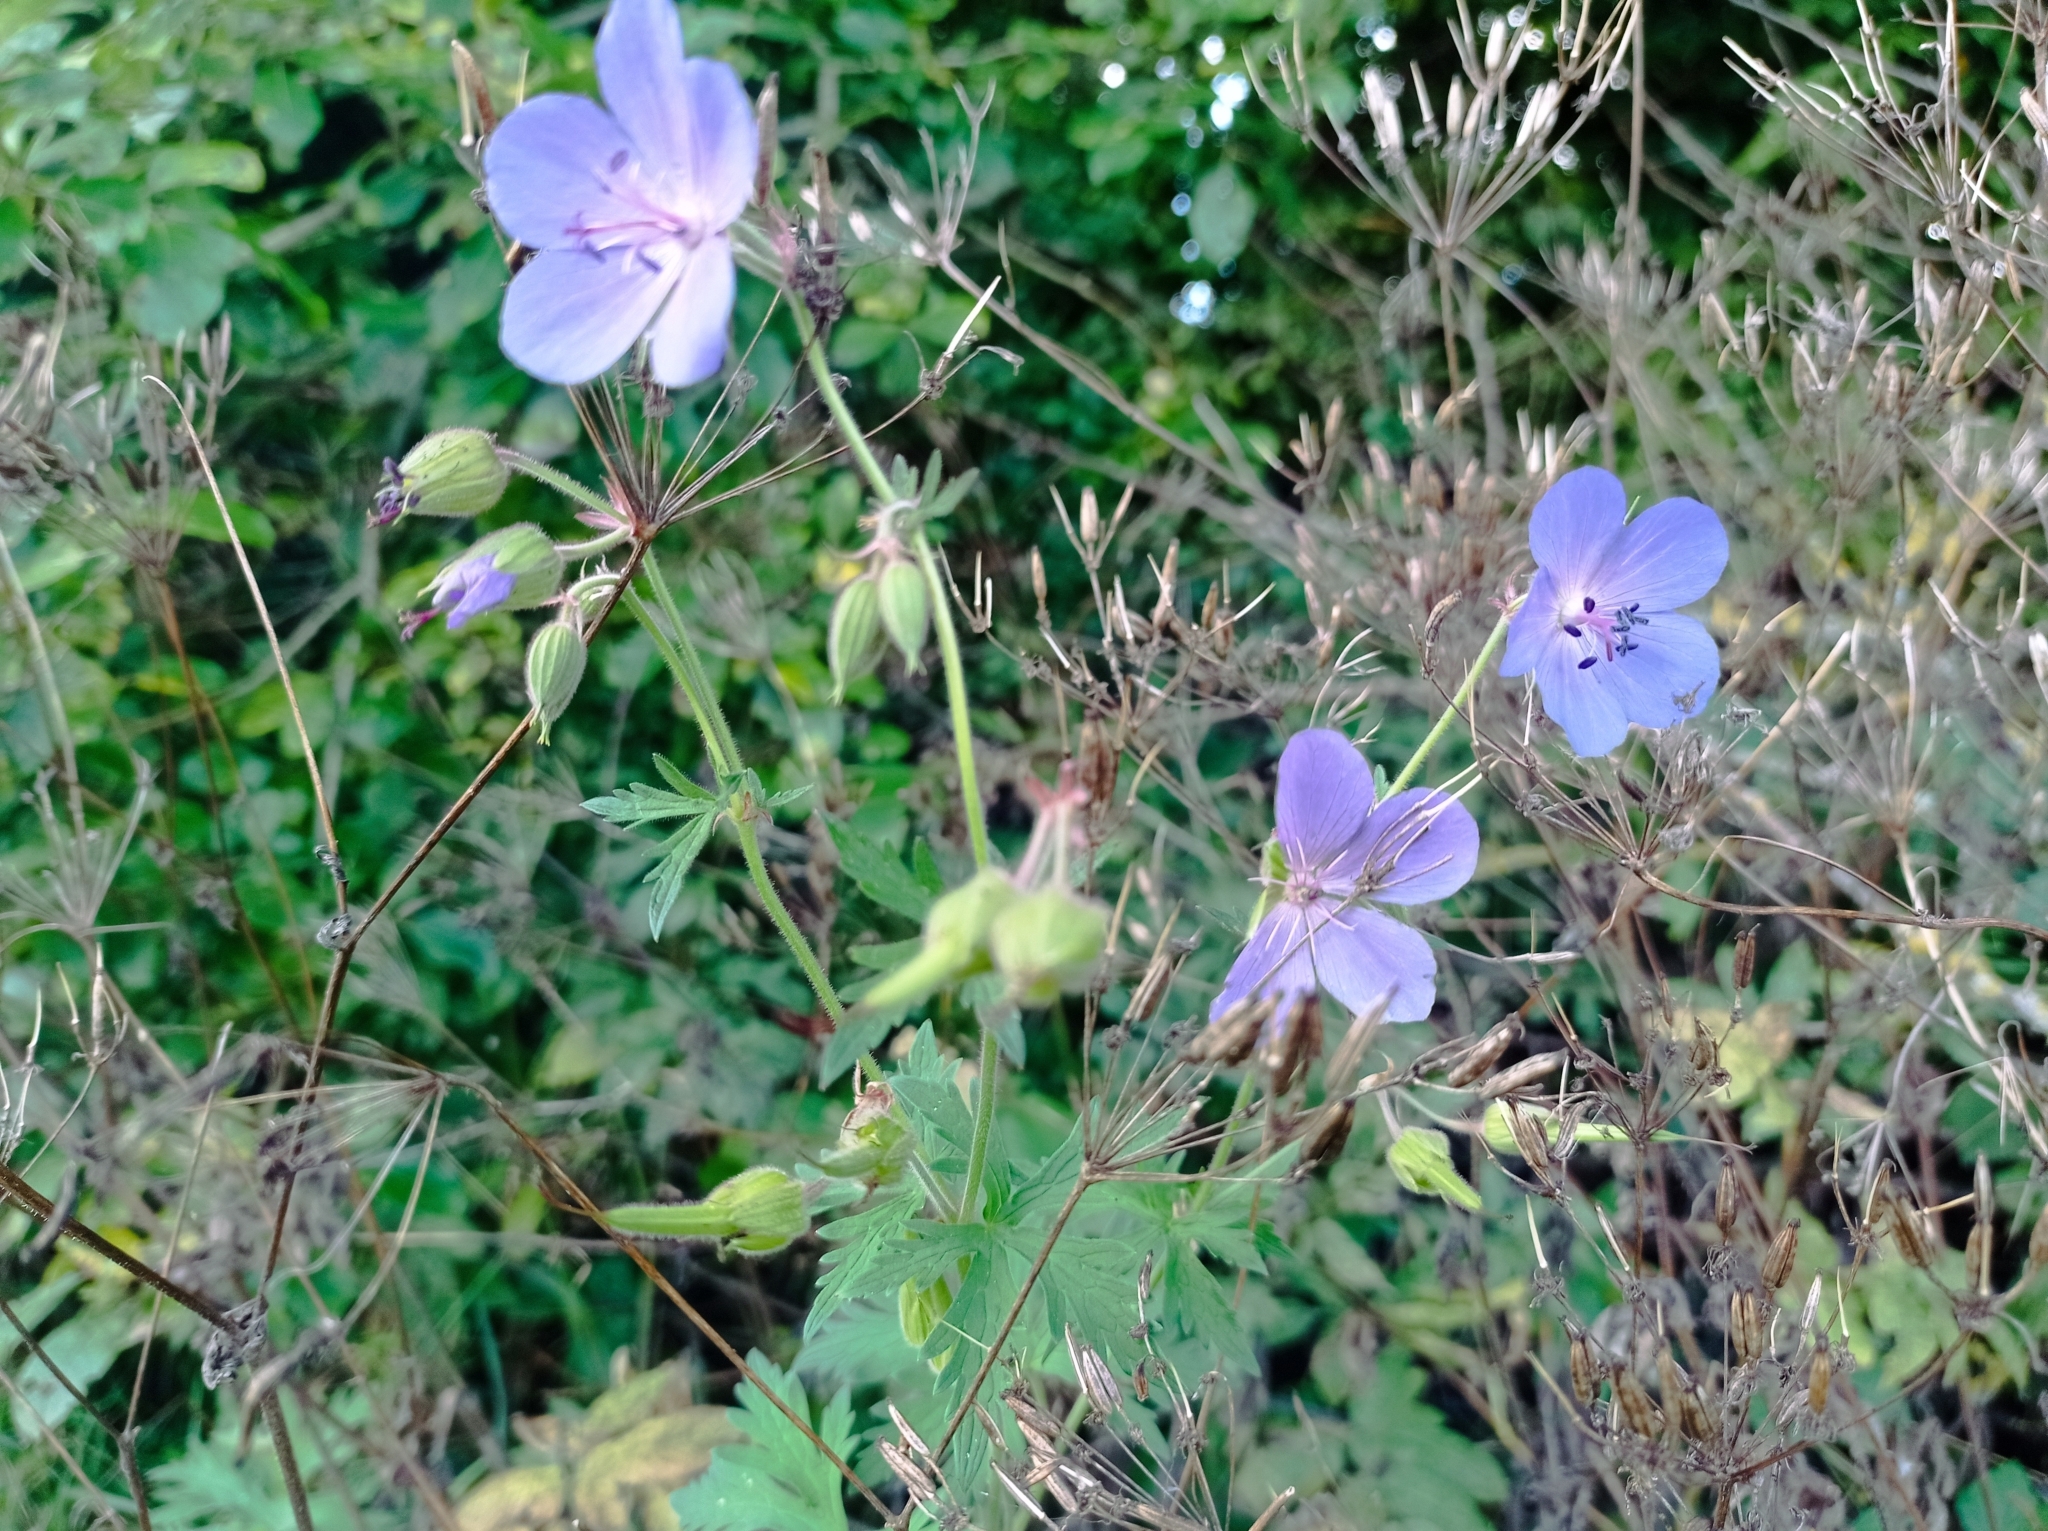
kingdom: Plantae
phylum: Tracheophyta
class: Magnoliopsida
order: Geraniales
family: Geraniaceae
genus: Geranium
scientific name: Geranium pratense
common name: Meadow crane's-bill
